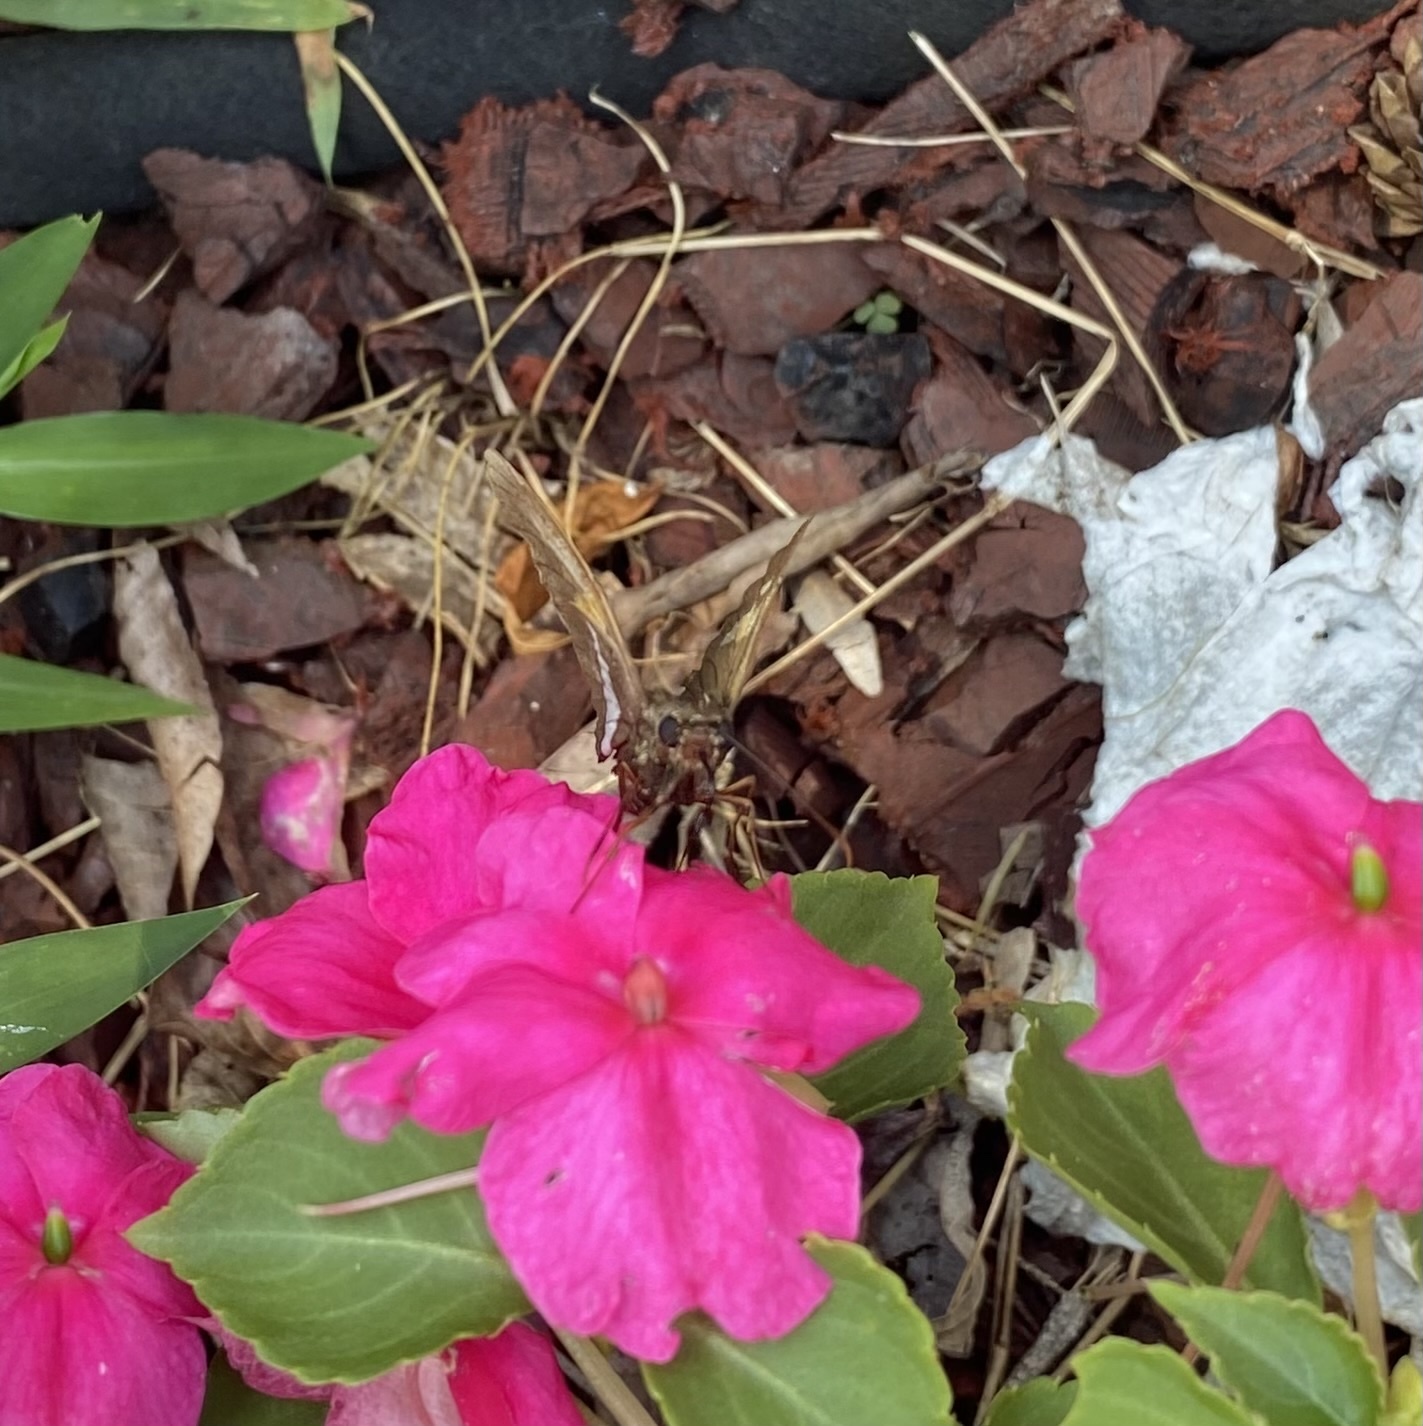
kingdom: Animalia
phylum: Arthropoda
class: Insecta
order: Lepidoptera
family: Hesperiidae
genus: Epargyreus
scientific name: Epargyreus clarus
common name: Silver-spotted skipper
